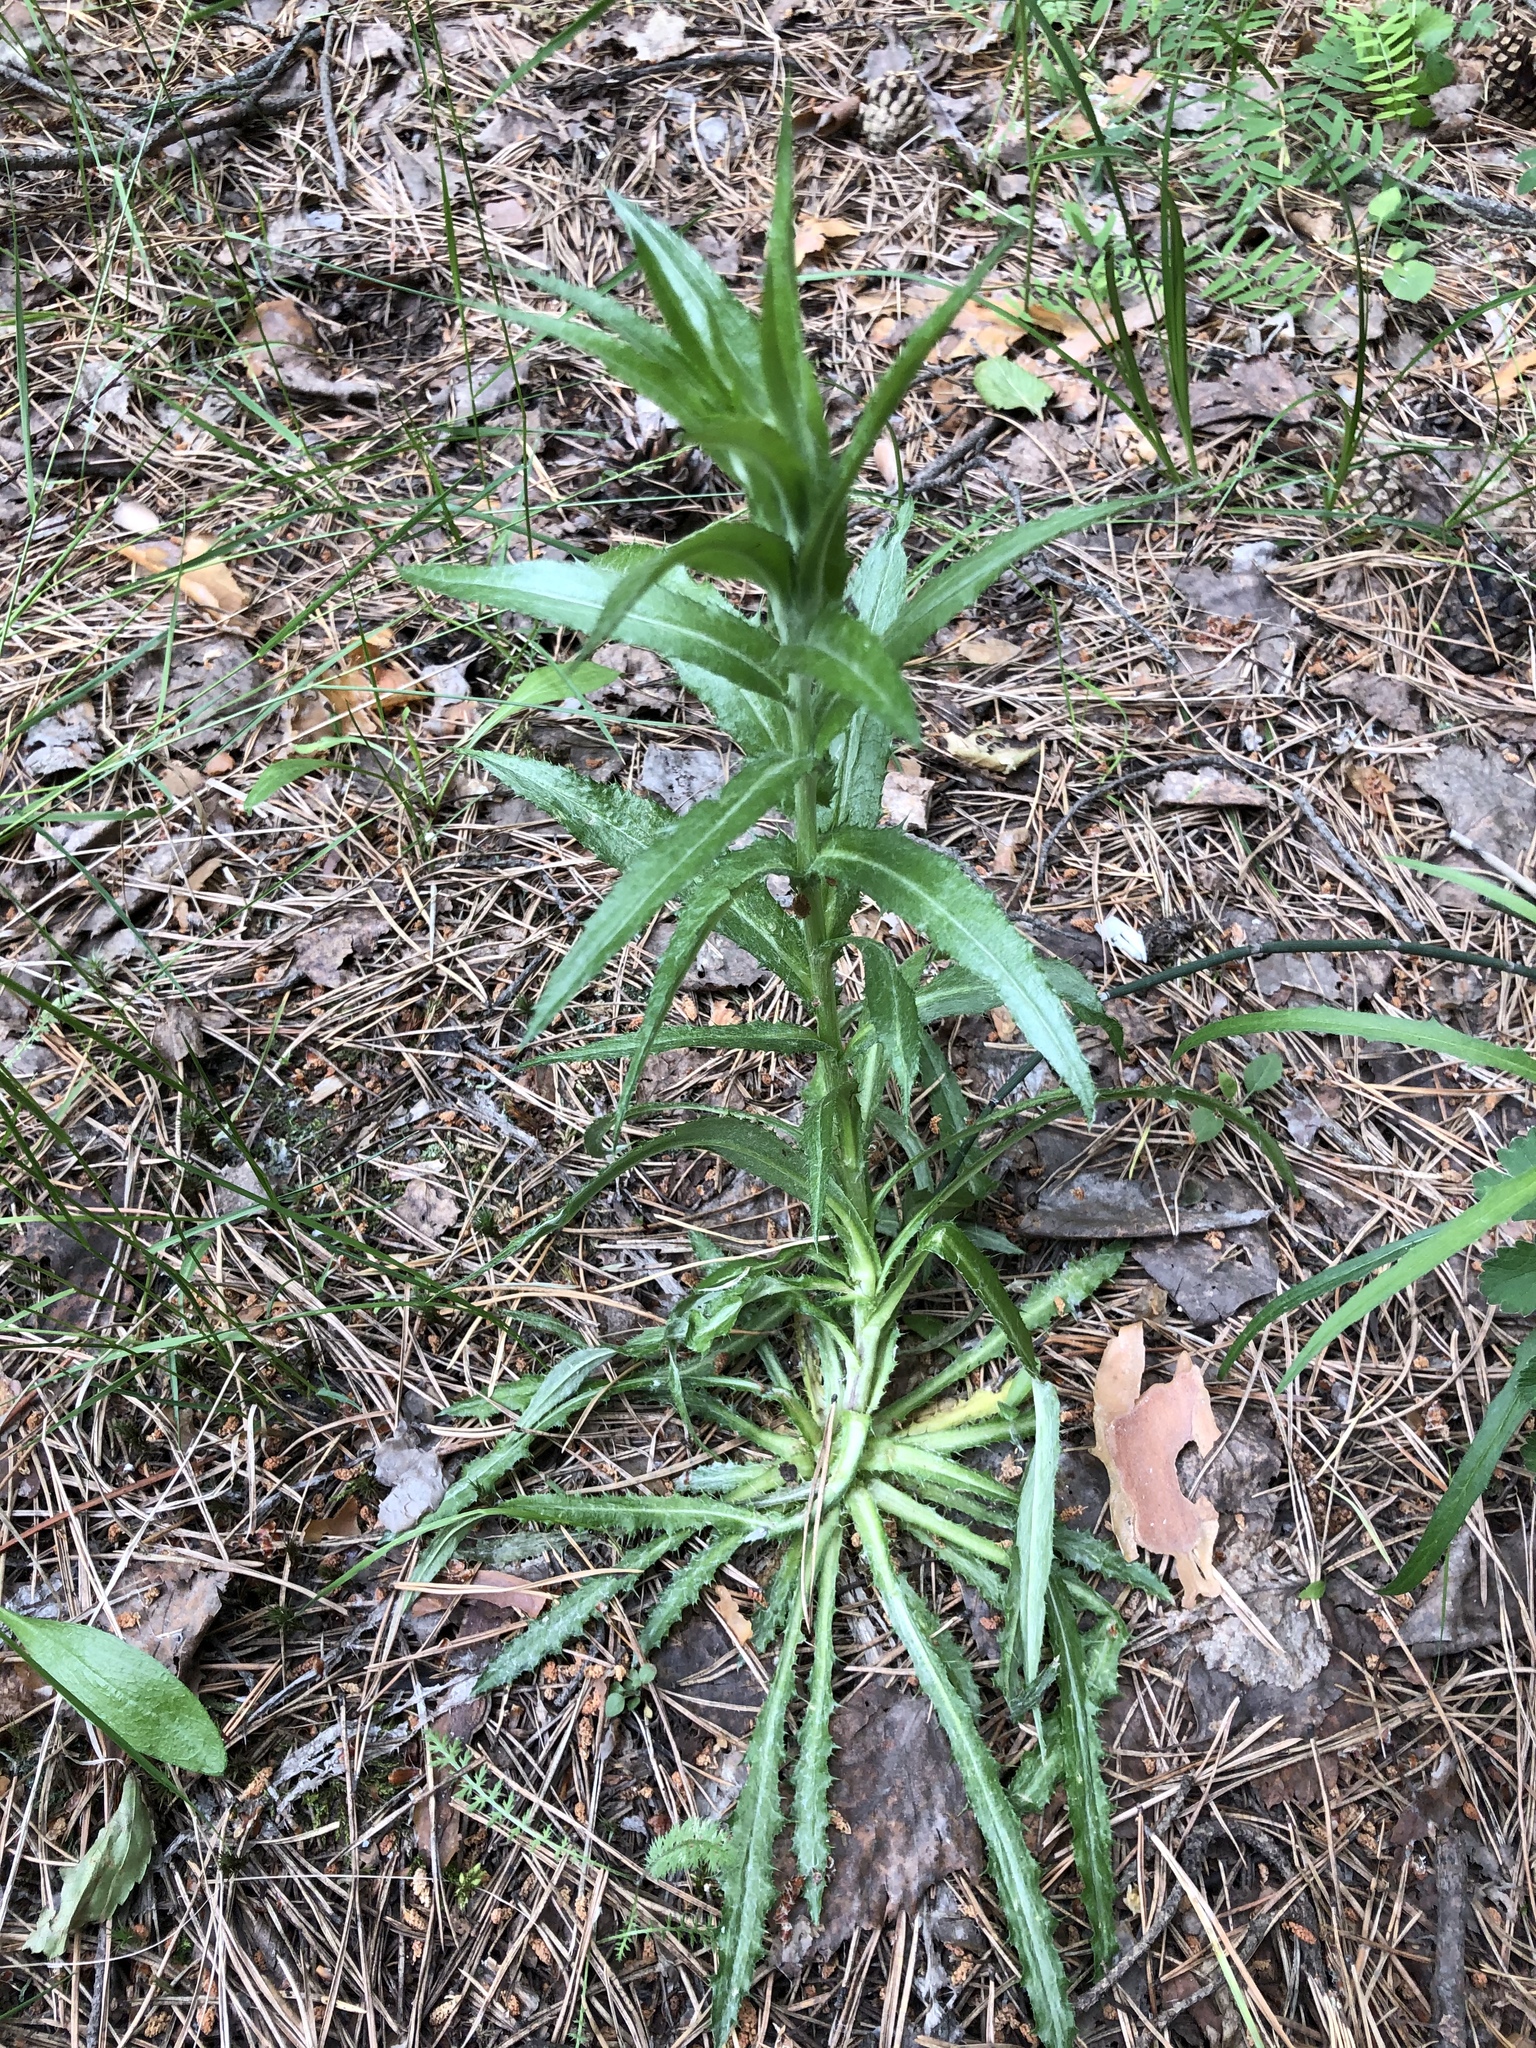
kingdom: Plantae
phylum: Tracheophyta
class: Magnoliopsida
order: Asterales
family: Asteraceae
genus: Carlina
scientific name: Carlina biebersteinii
